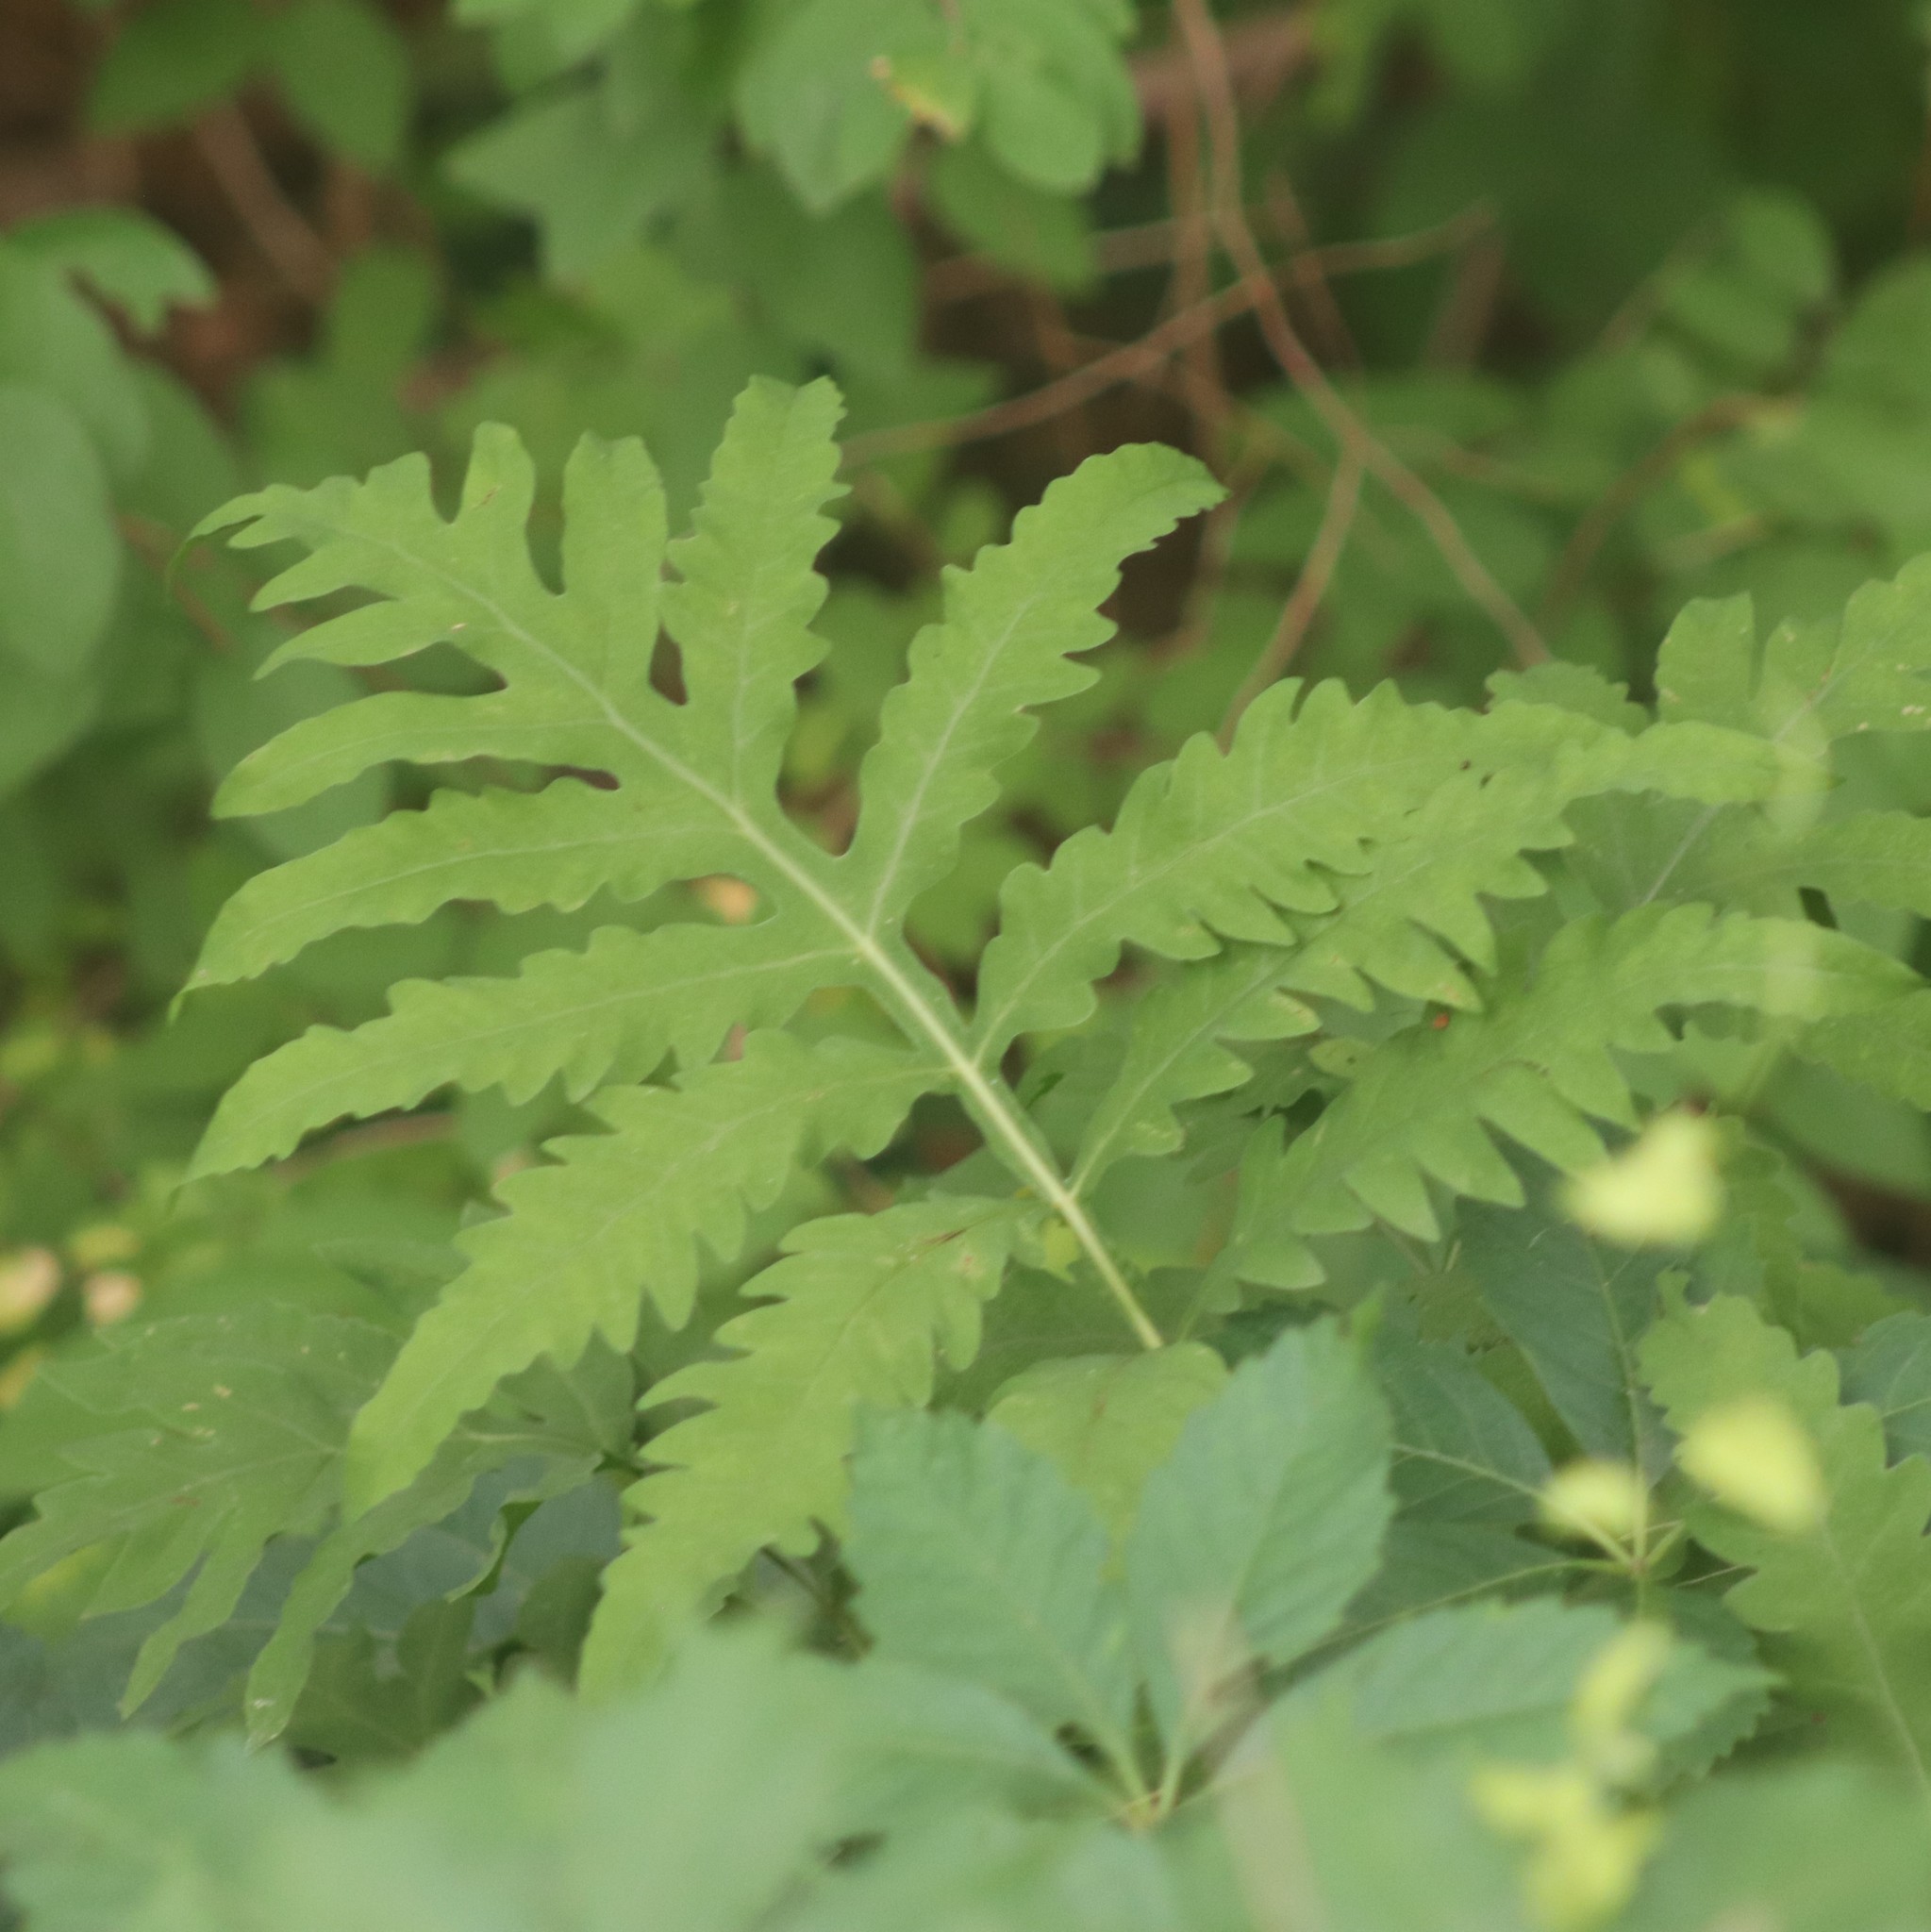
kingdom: Plantae
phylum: Tracheophyta
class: Polypodiopsida
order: Polypodiales
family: Onocleaceae
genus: Onoclea
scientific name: Onoclea sensibilis
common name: Sensitive fern
